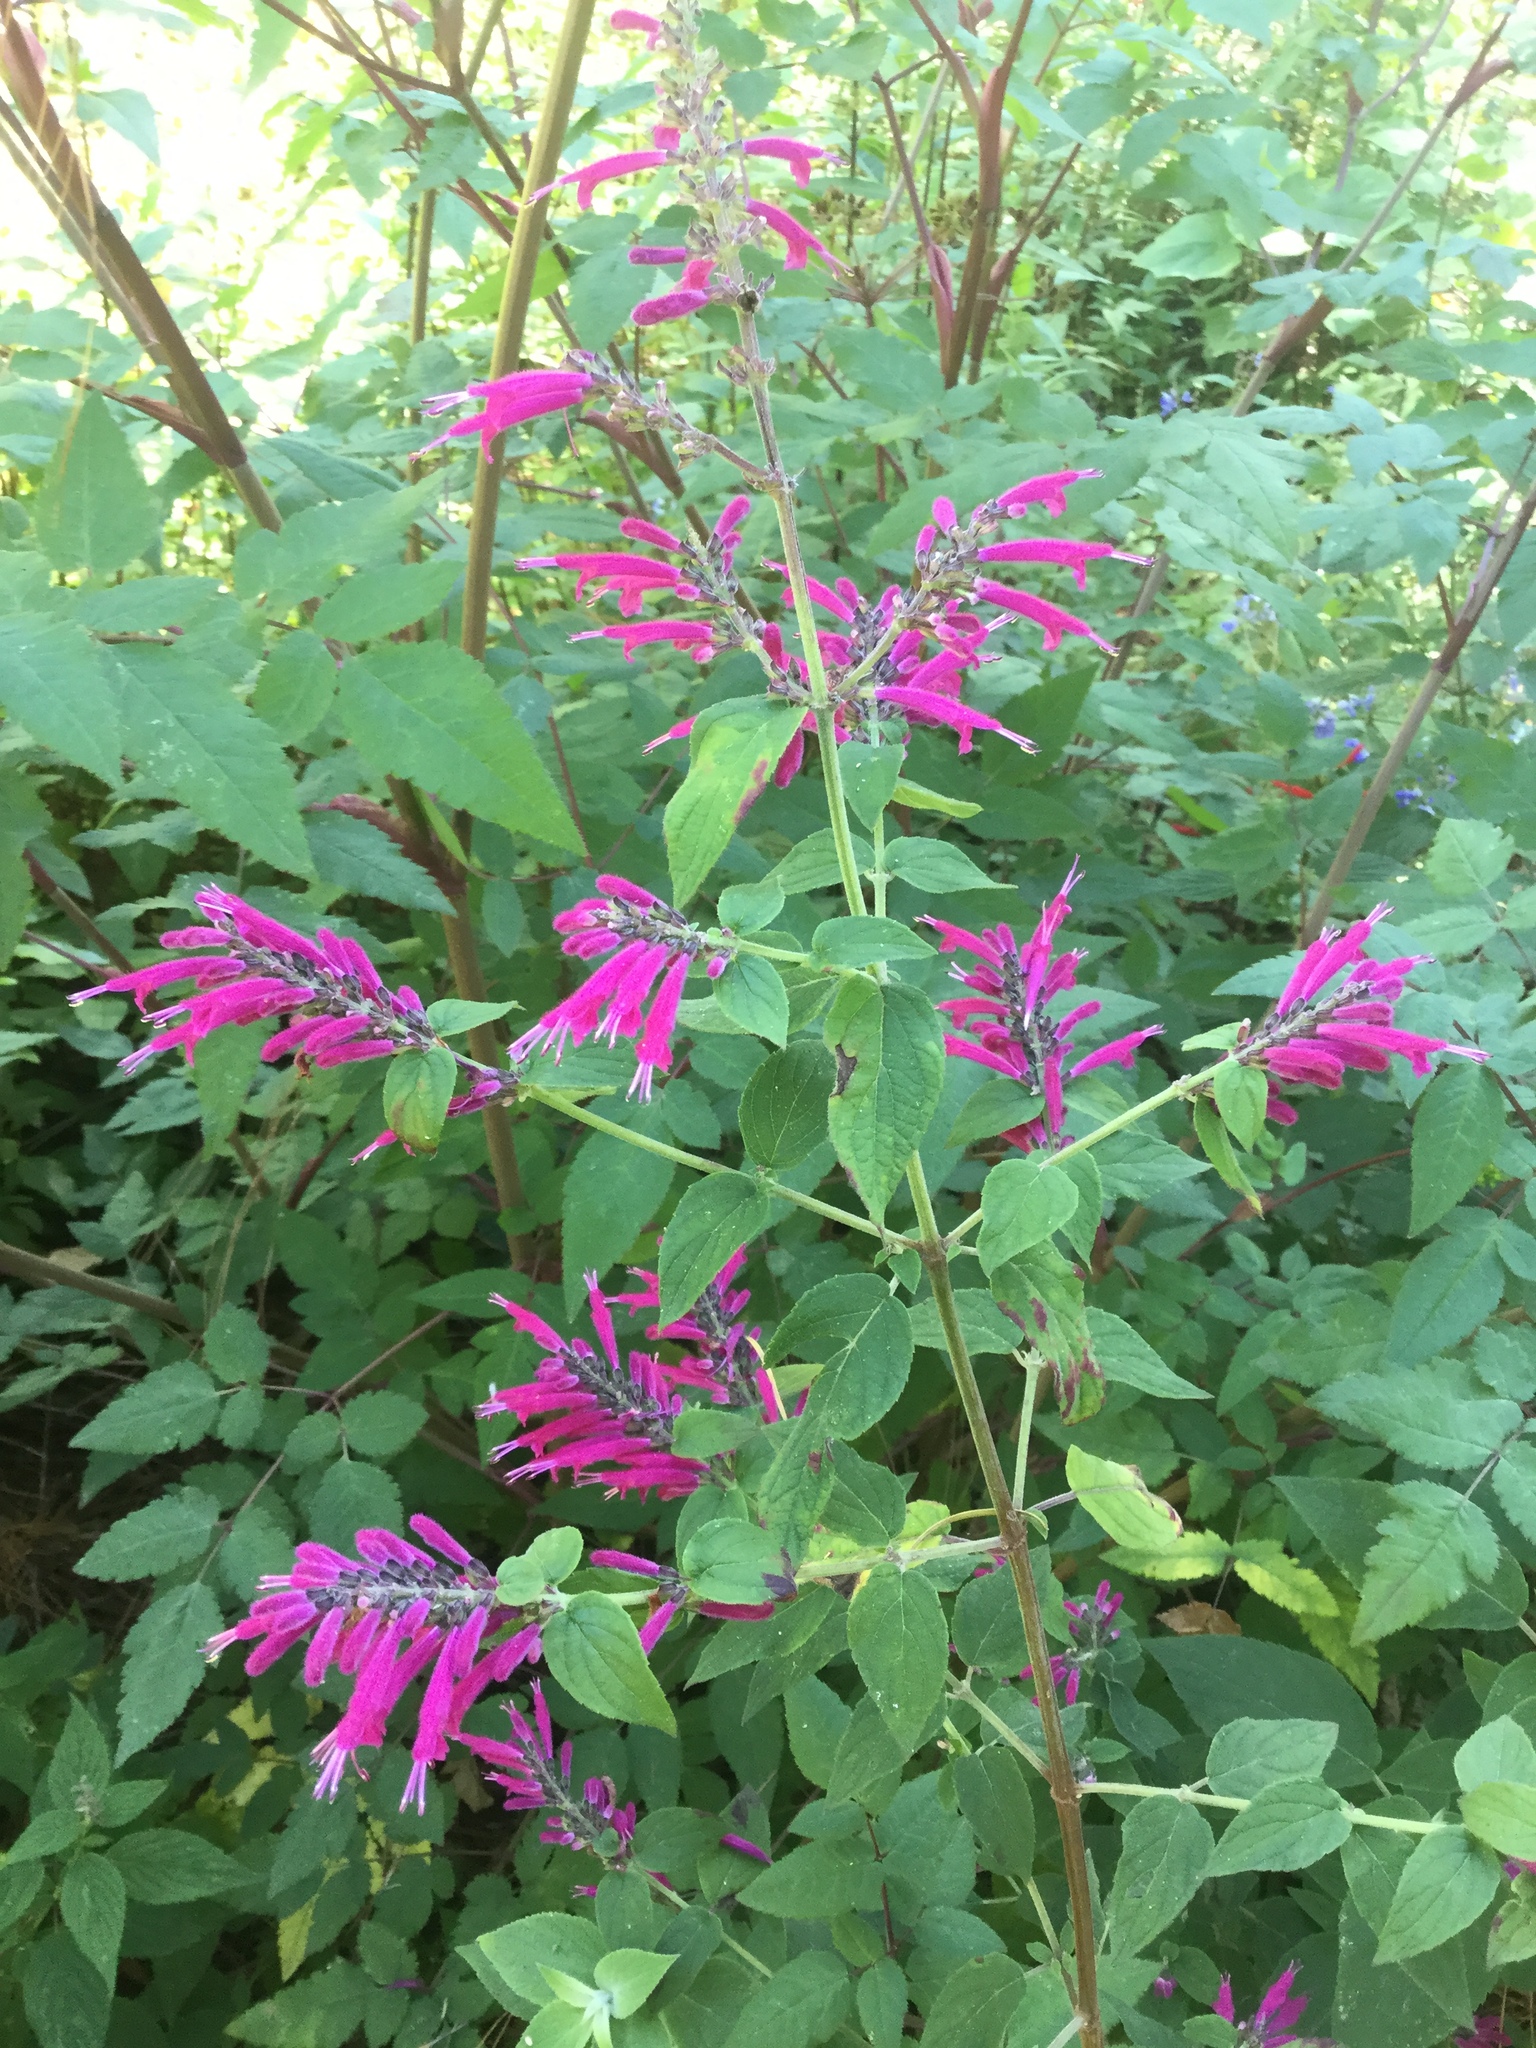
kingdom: Plantae
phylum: Tracheophyta
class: Magnoliopsida
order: Lamiales
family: Lamiaceae
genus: Salvia
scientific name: Salvia iodantha
